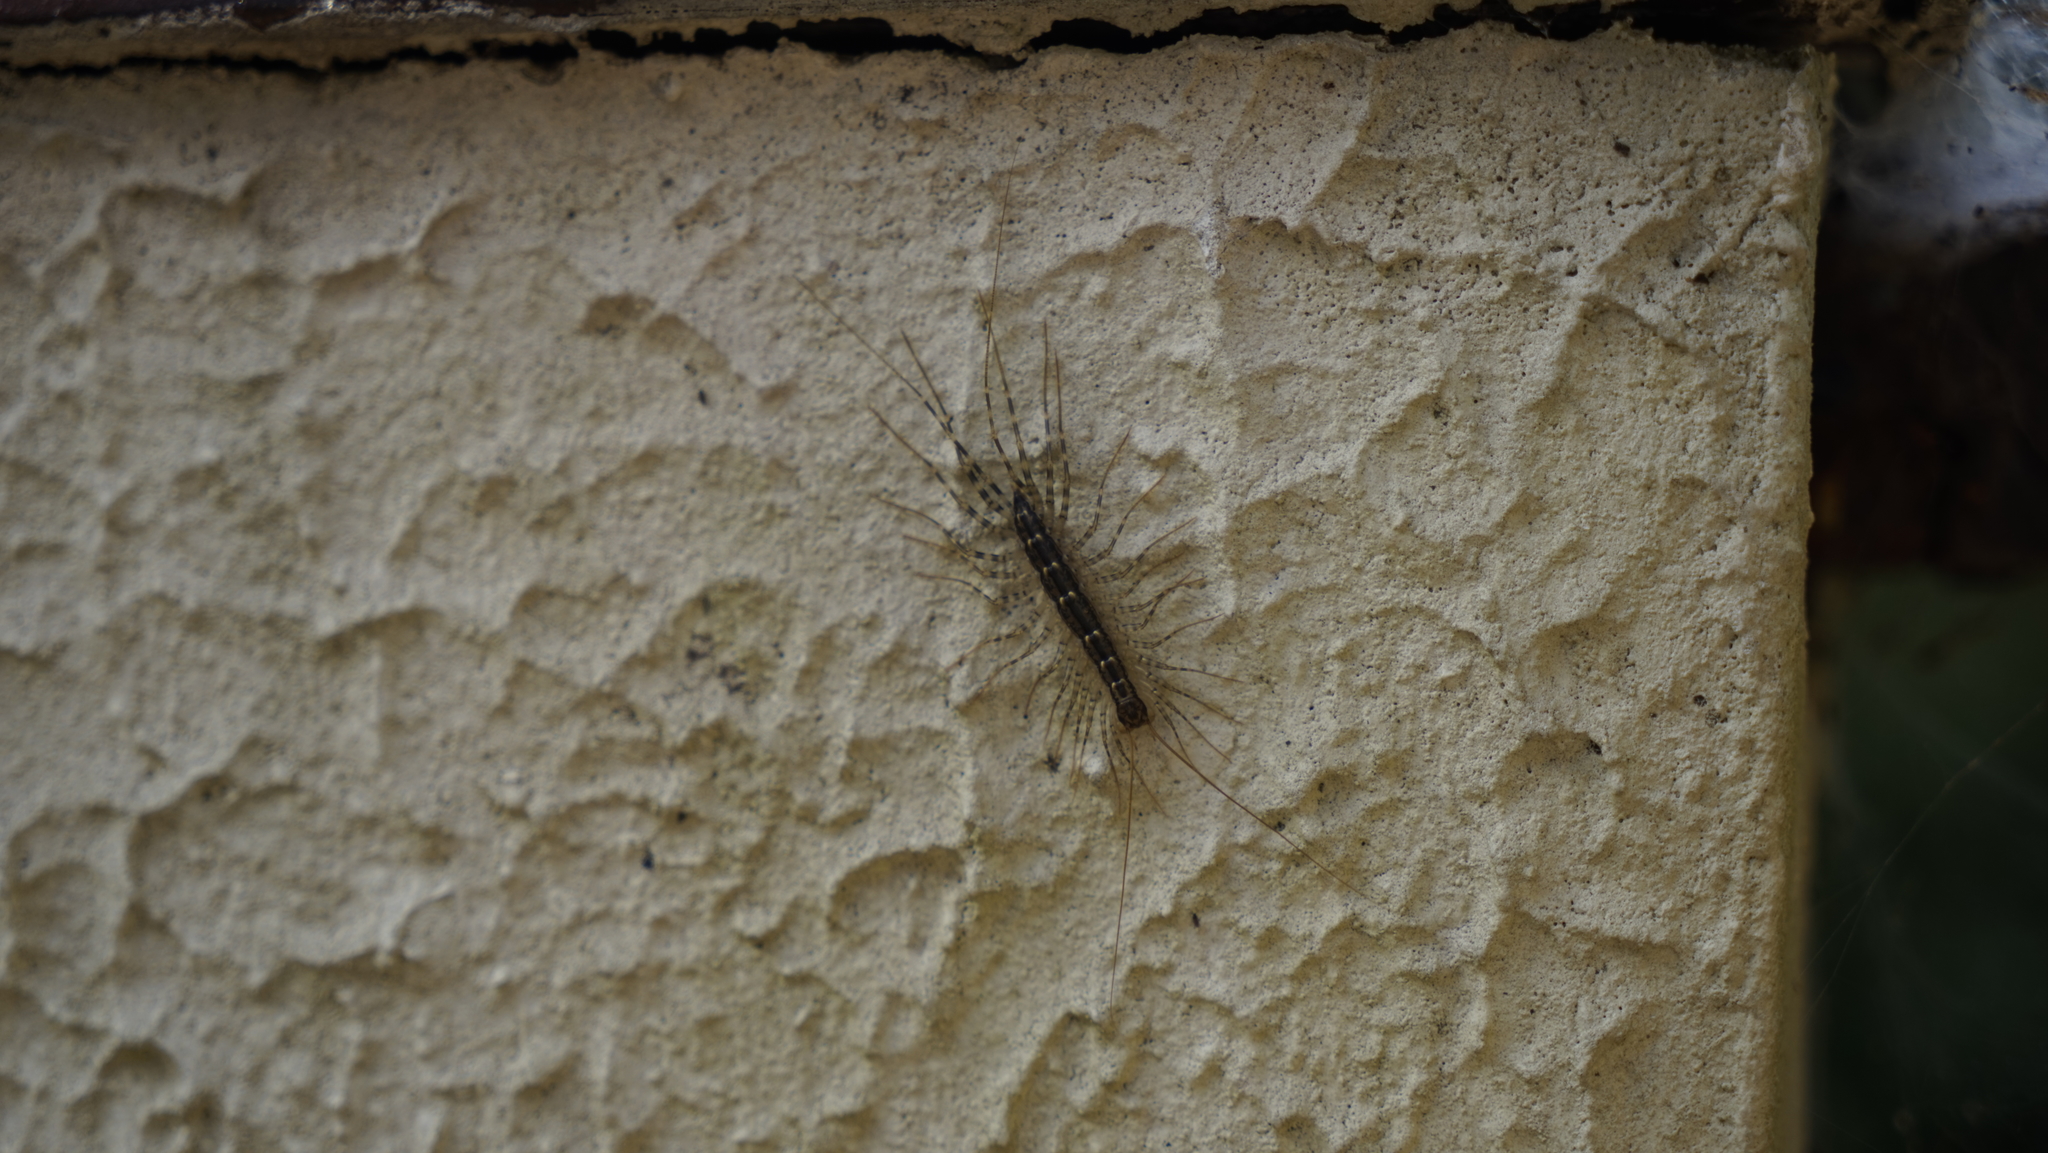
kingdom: Animalia
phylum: Arthropoda
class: Chilopoda
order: Scutigeromorpha
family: Scutigeridae
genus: Thereuonema
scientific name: Thereuonema tuberculata
